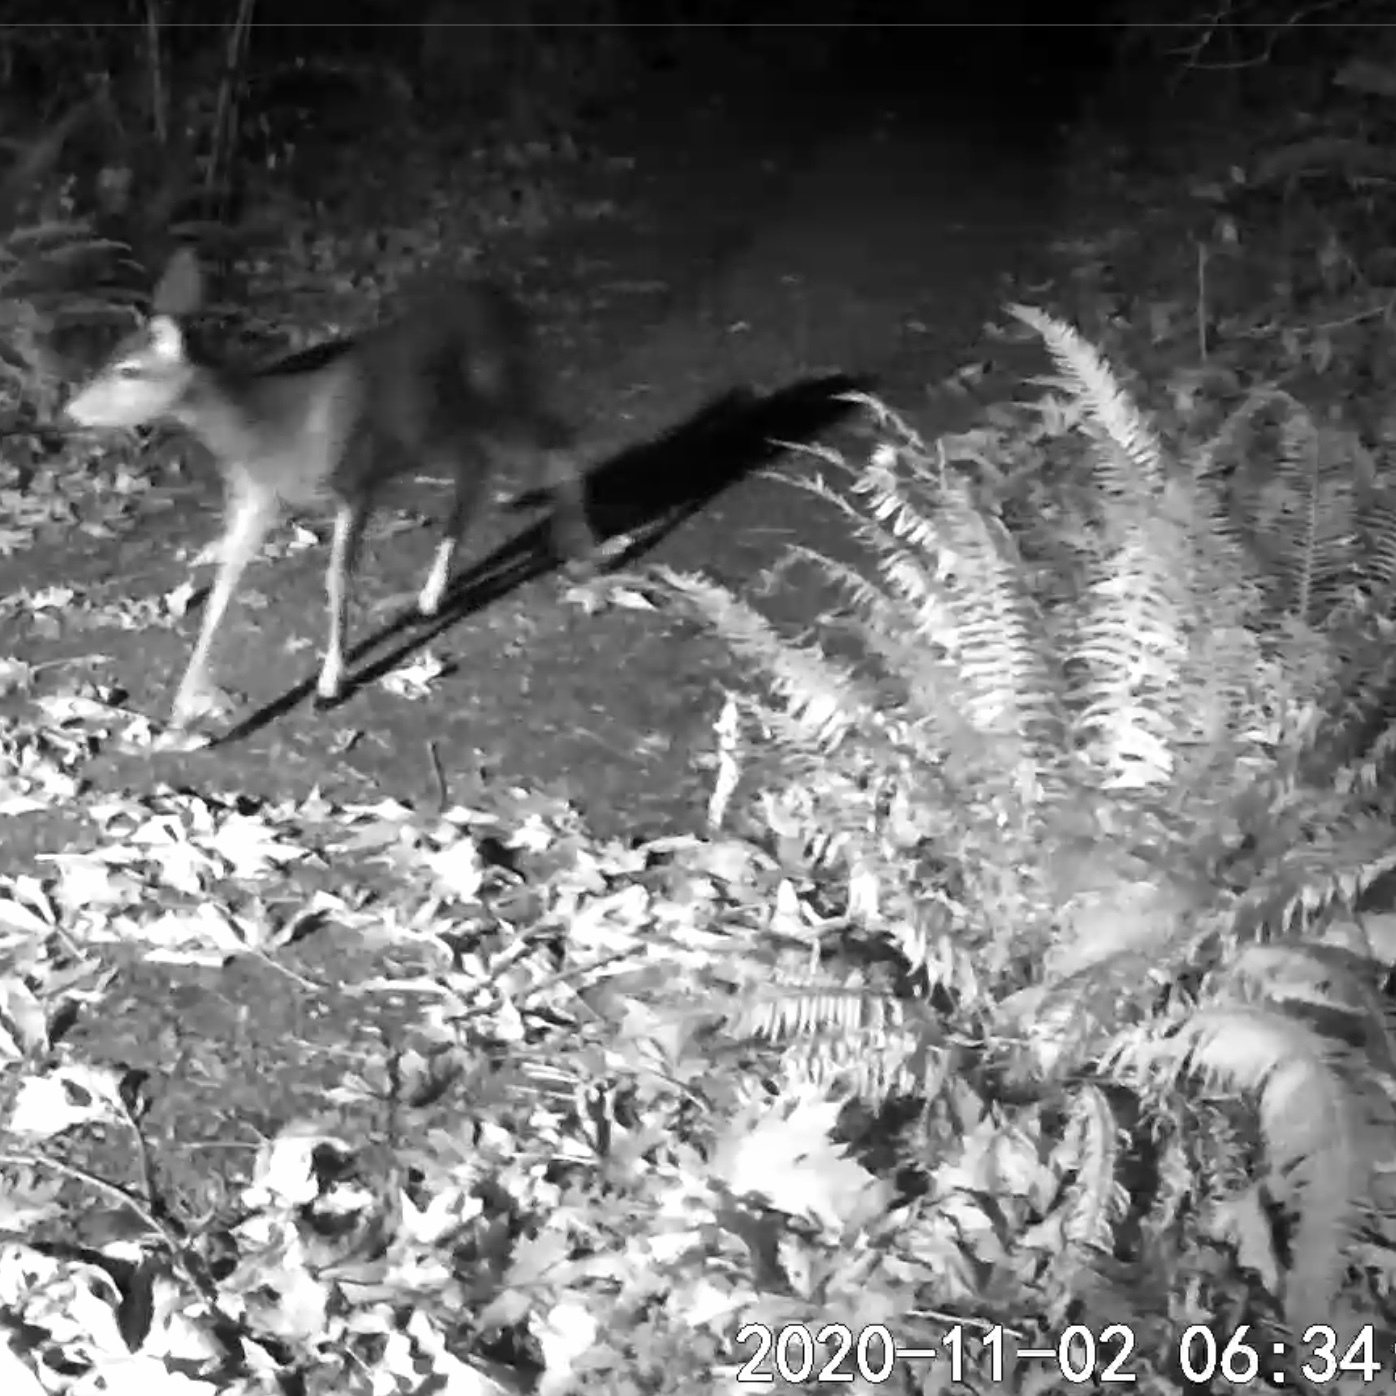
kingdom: Animalia
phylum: Chordata
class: Mammalia
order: Artiodactyla
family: Cervidae
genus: Odocoileus
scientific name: Odocoileus hemionus
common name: Mule deer
